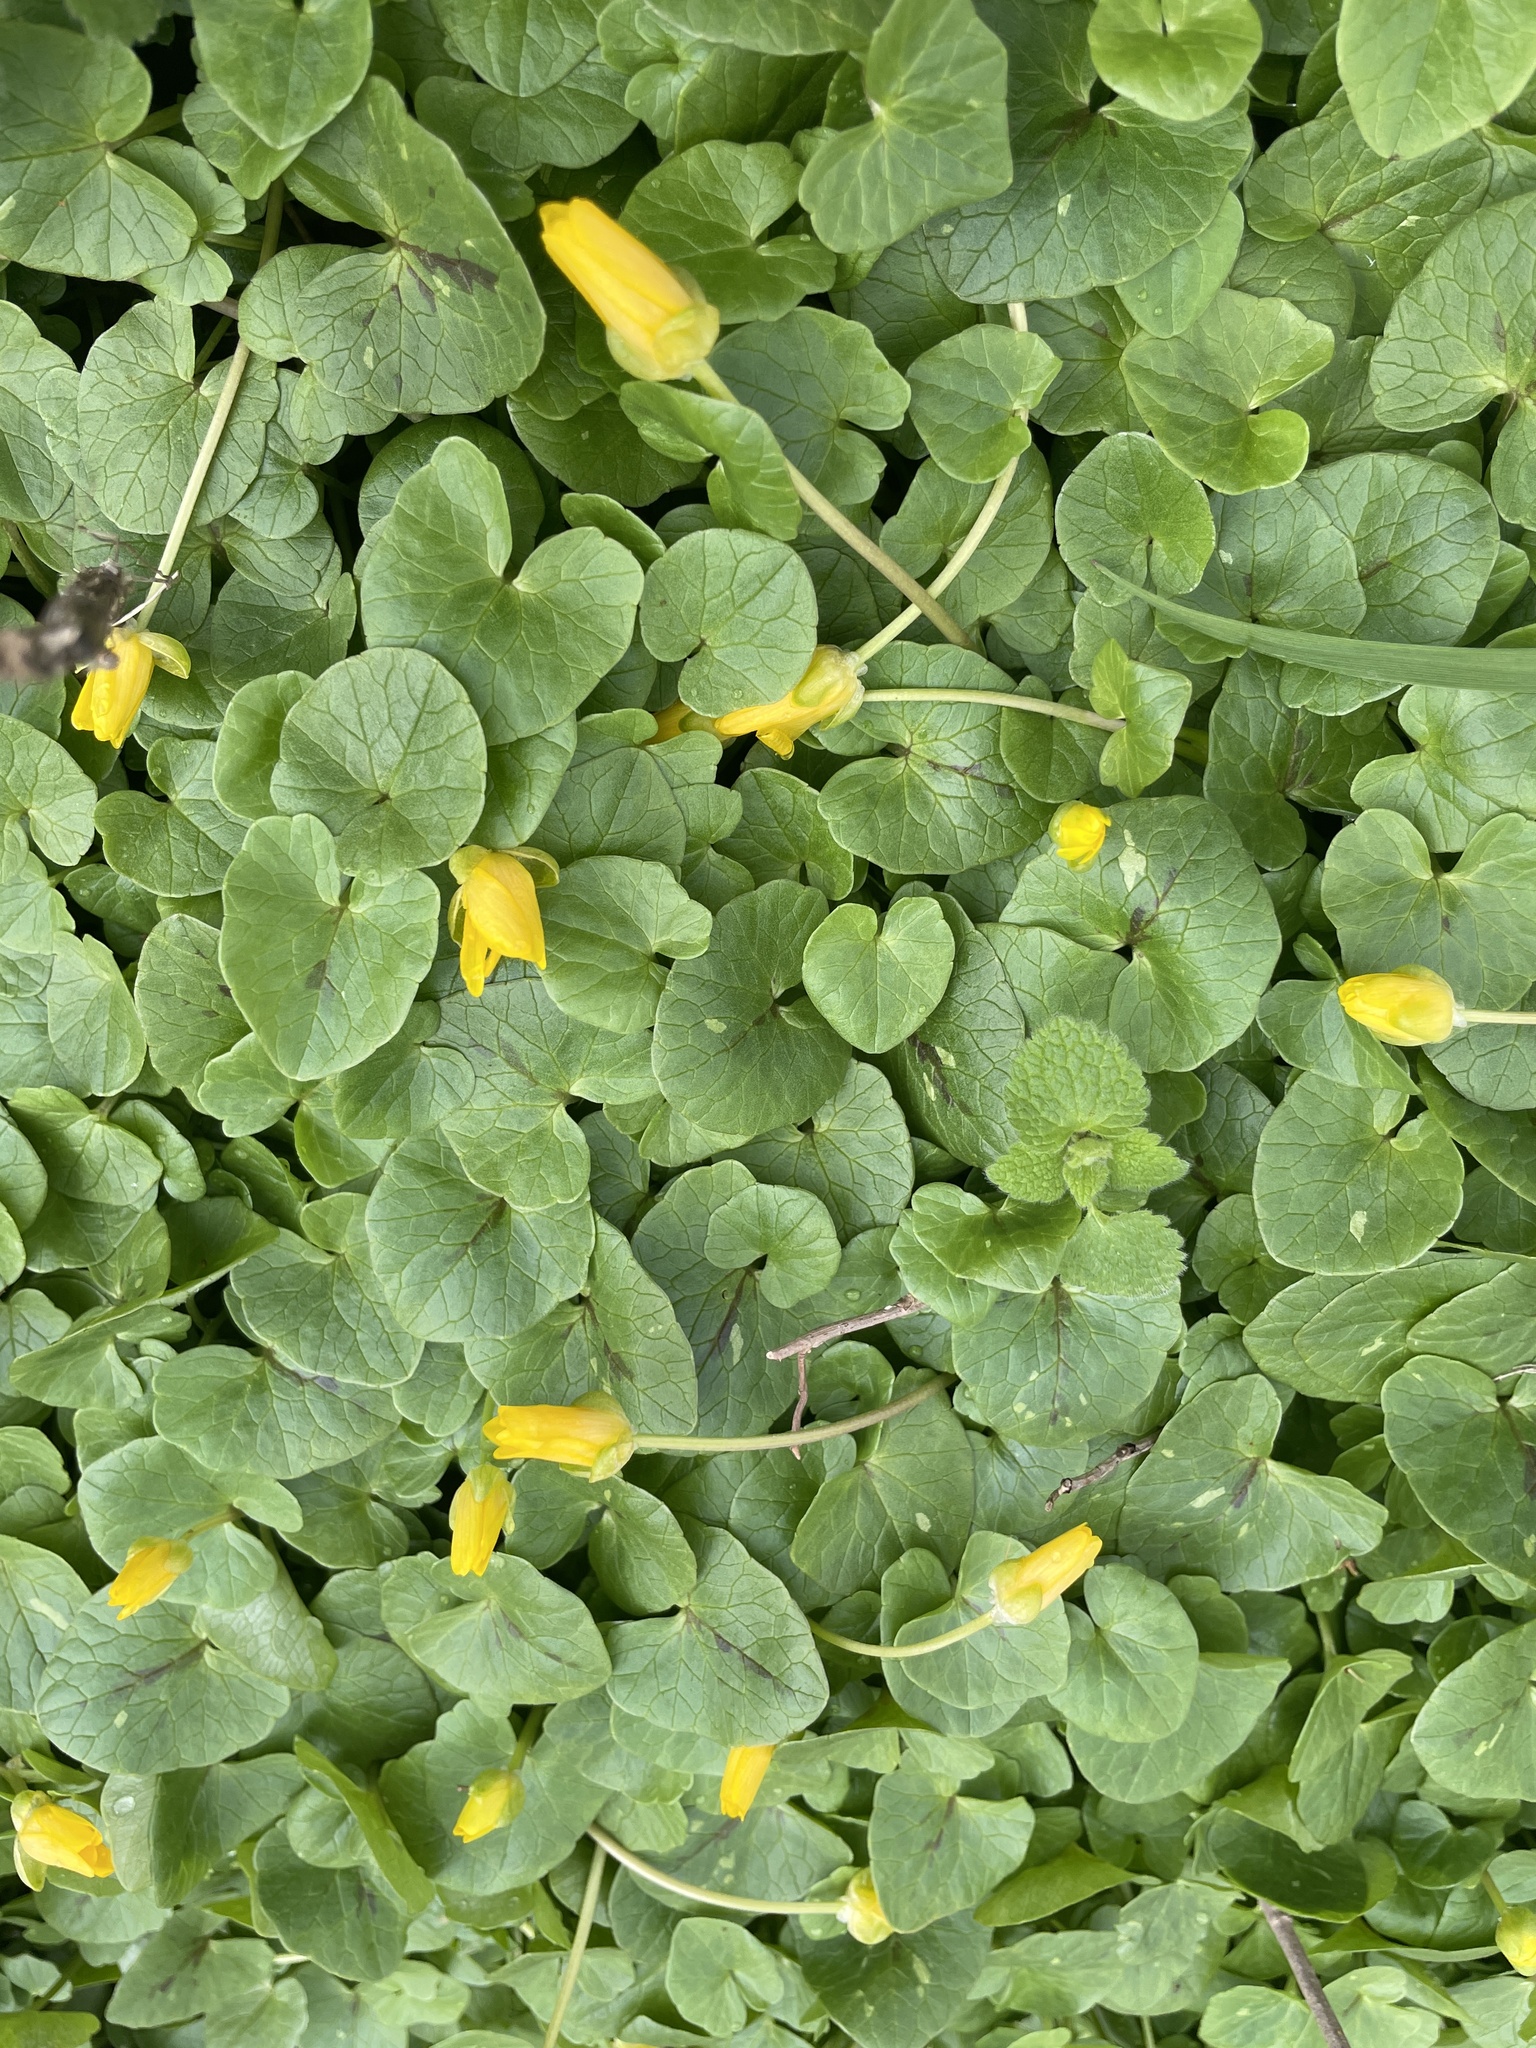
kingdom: Plantae
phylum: Tracheophyta
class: Magnoliopsida
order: Ranunculales
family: Ranunculaceae
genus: Ficaria
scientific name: Ficaria verna
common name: Lesser celandine
